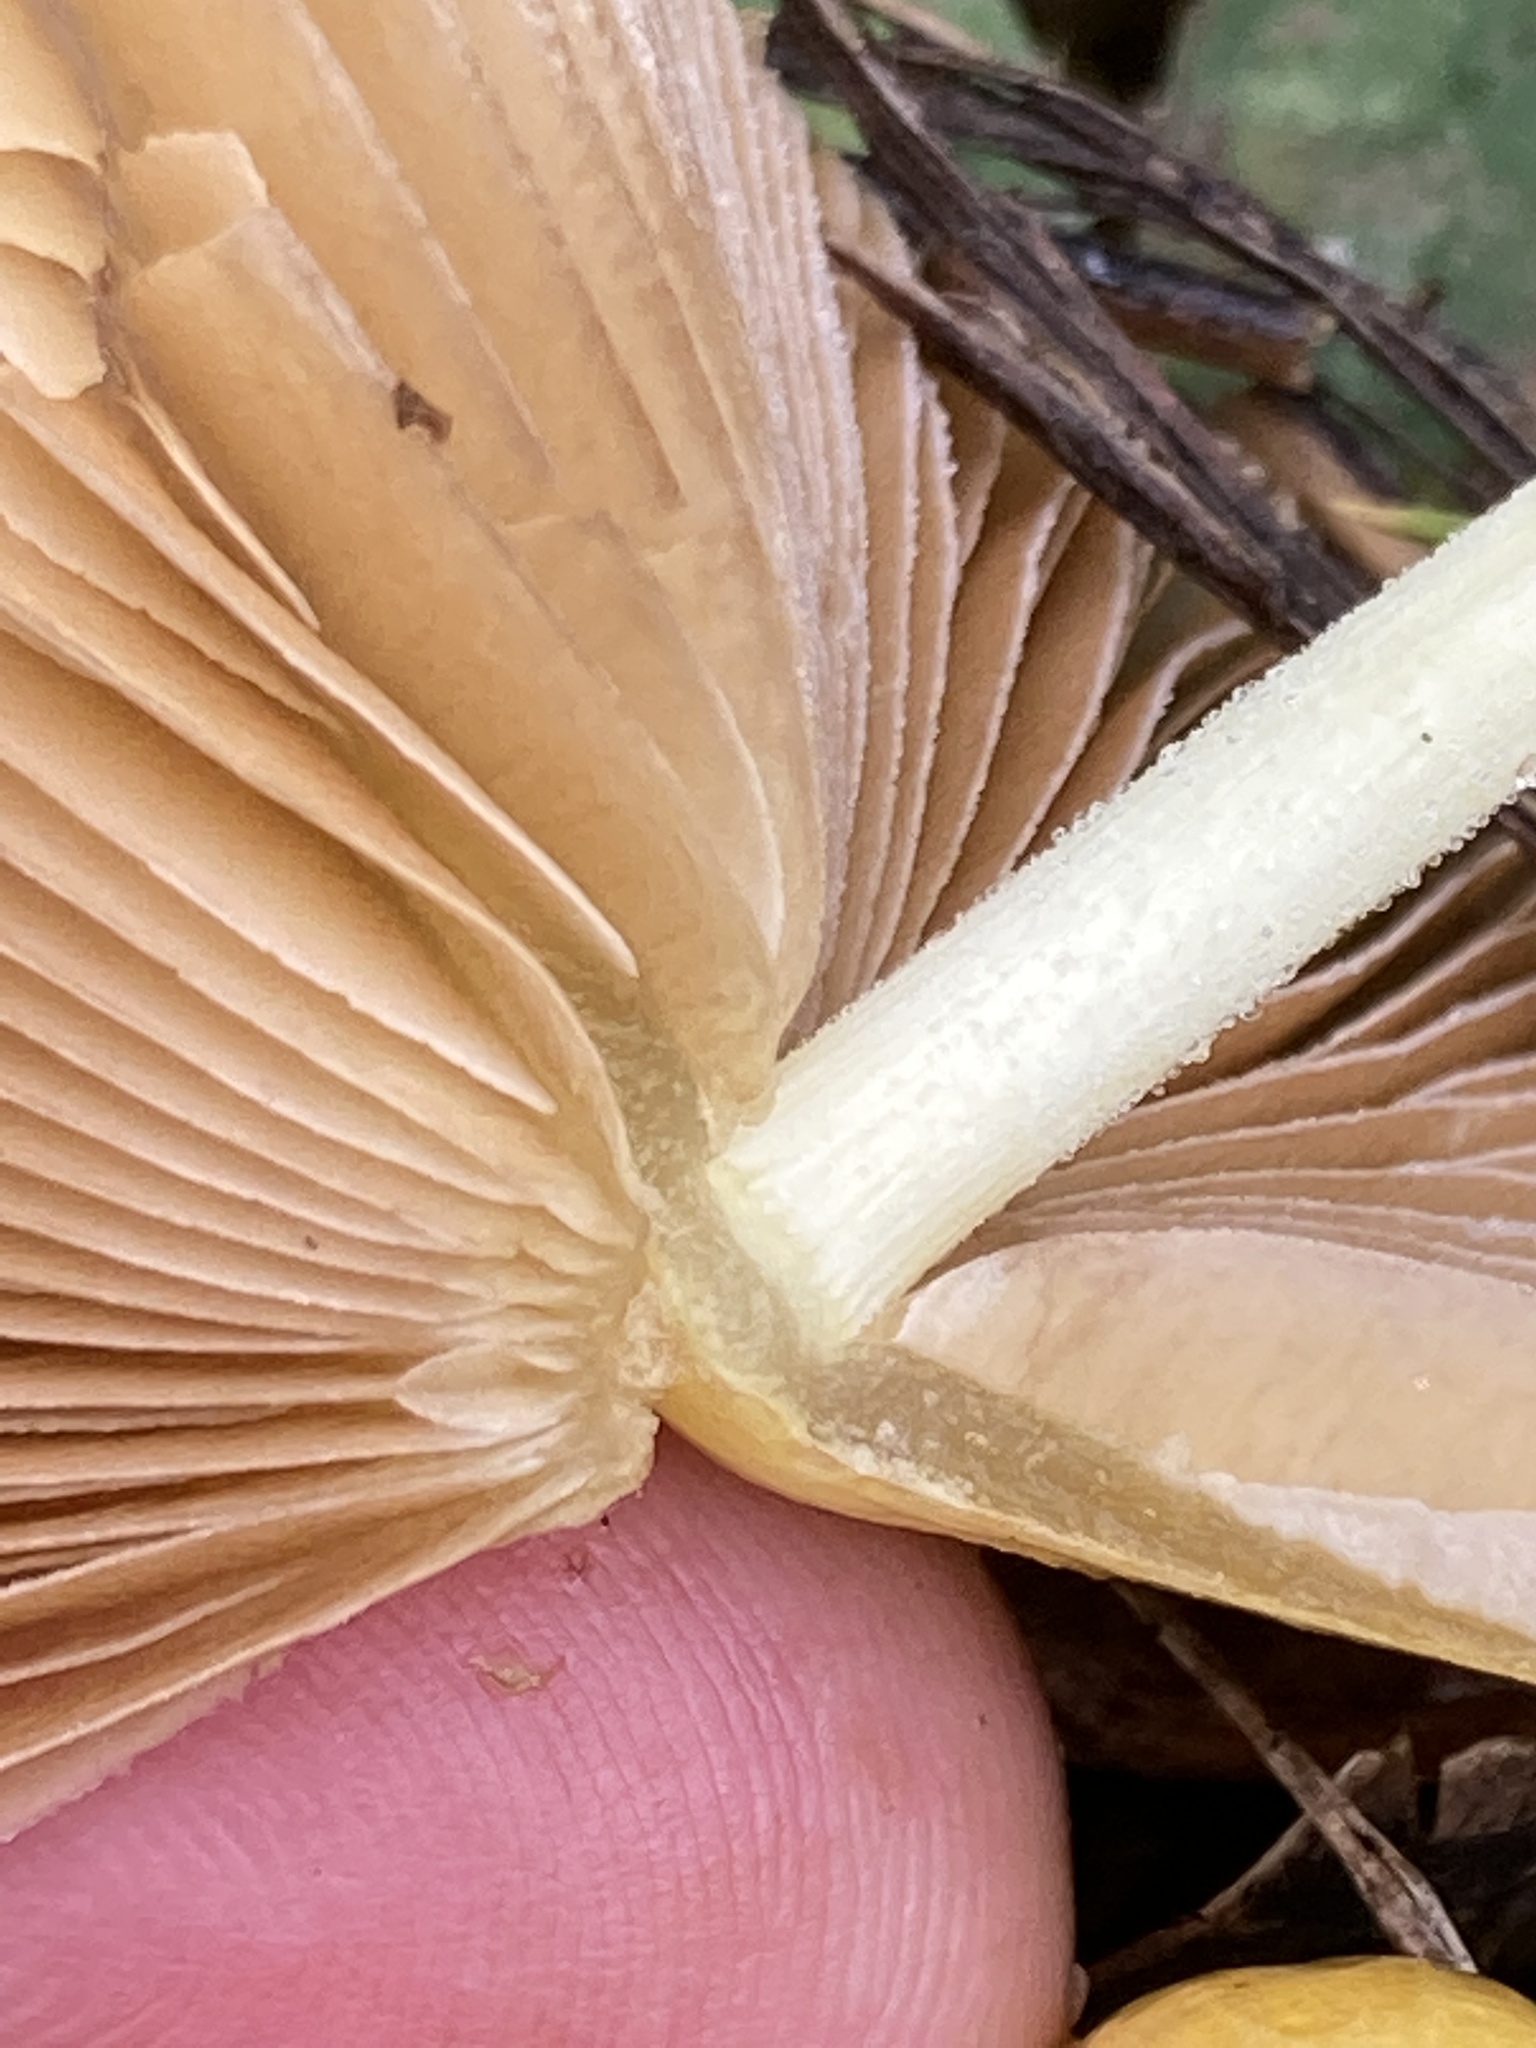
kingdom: Fungi
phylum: Basidiomycota
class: Agaricomycetes
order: Agaricales
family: Bolbitiaceae
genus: Bolbitius
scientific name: Bolbitius titubans
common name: Yellow fieldcap
